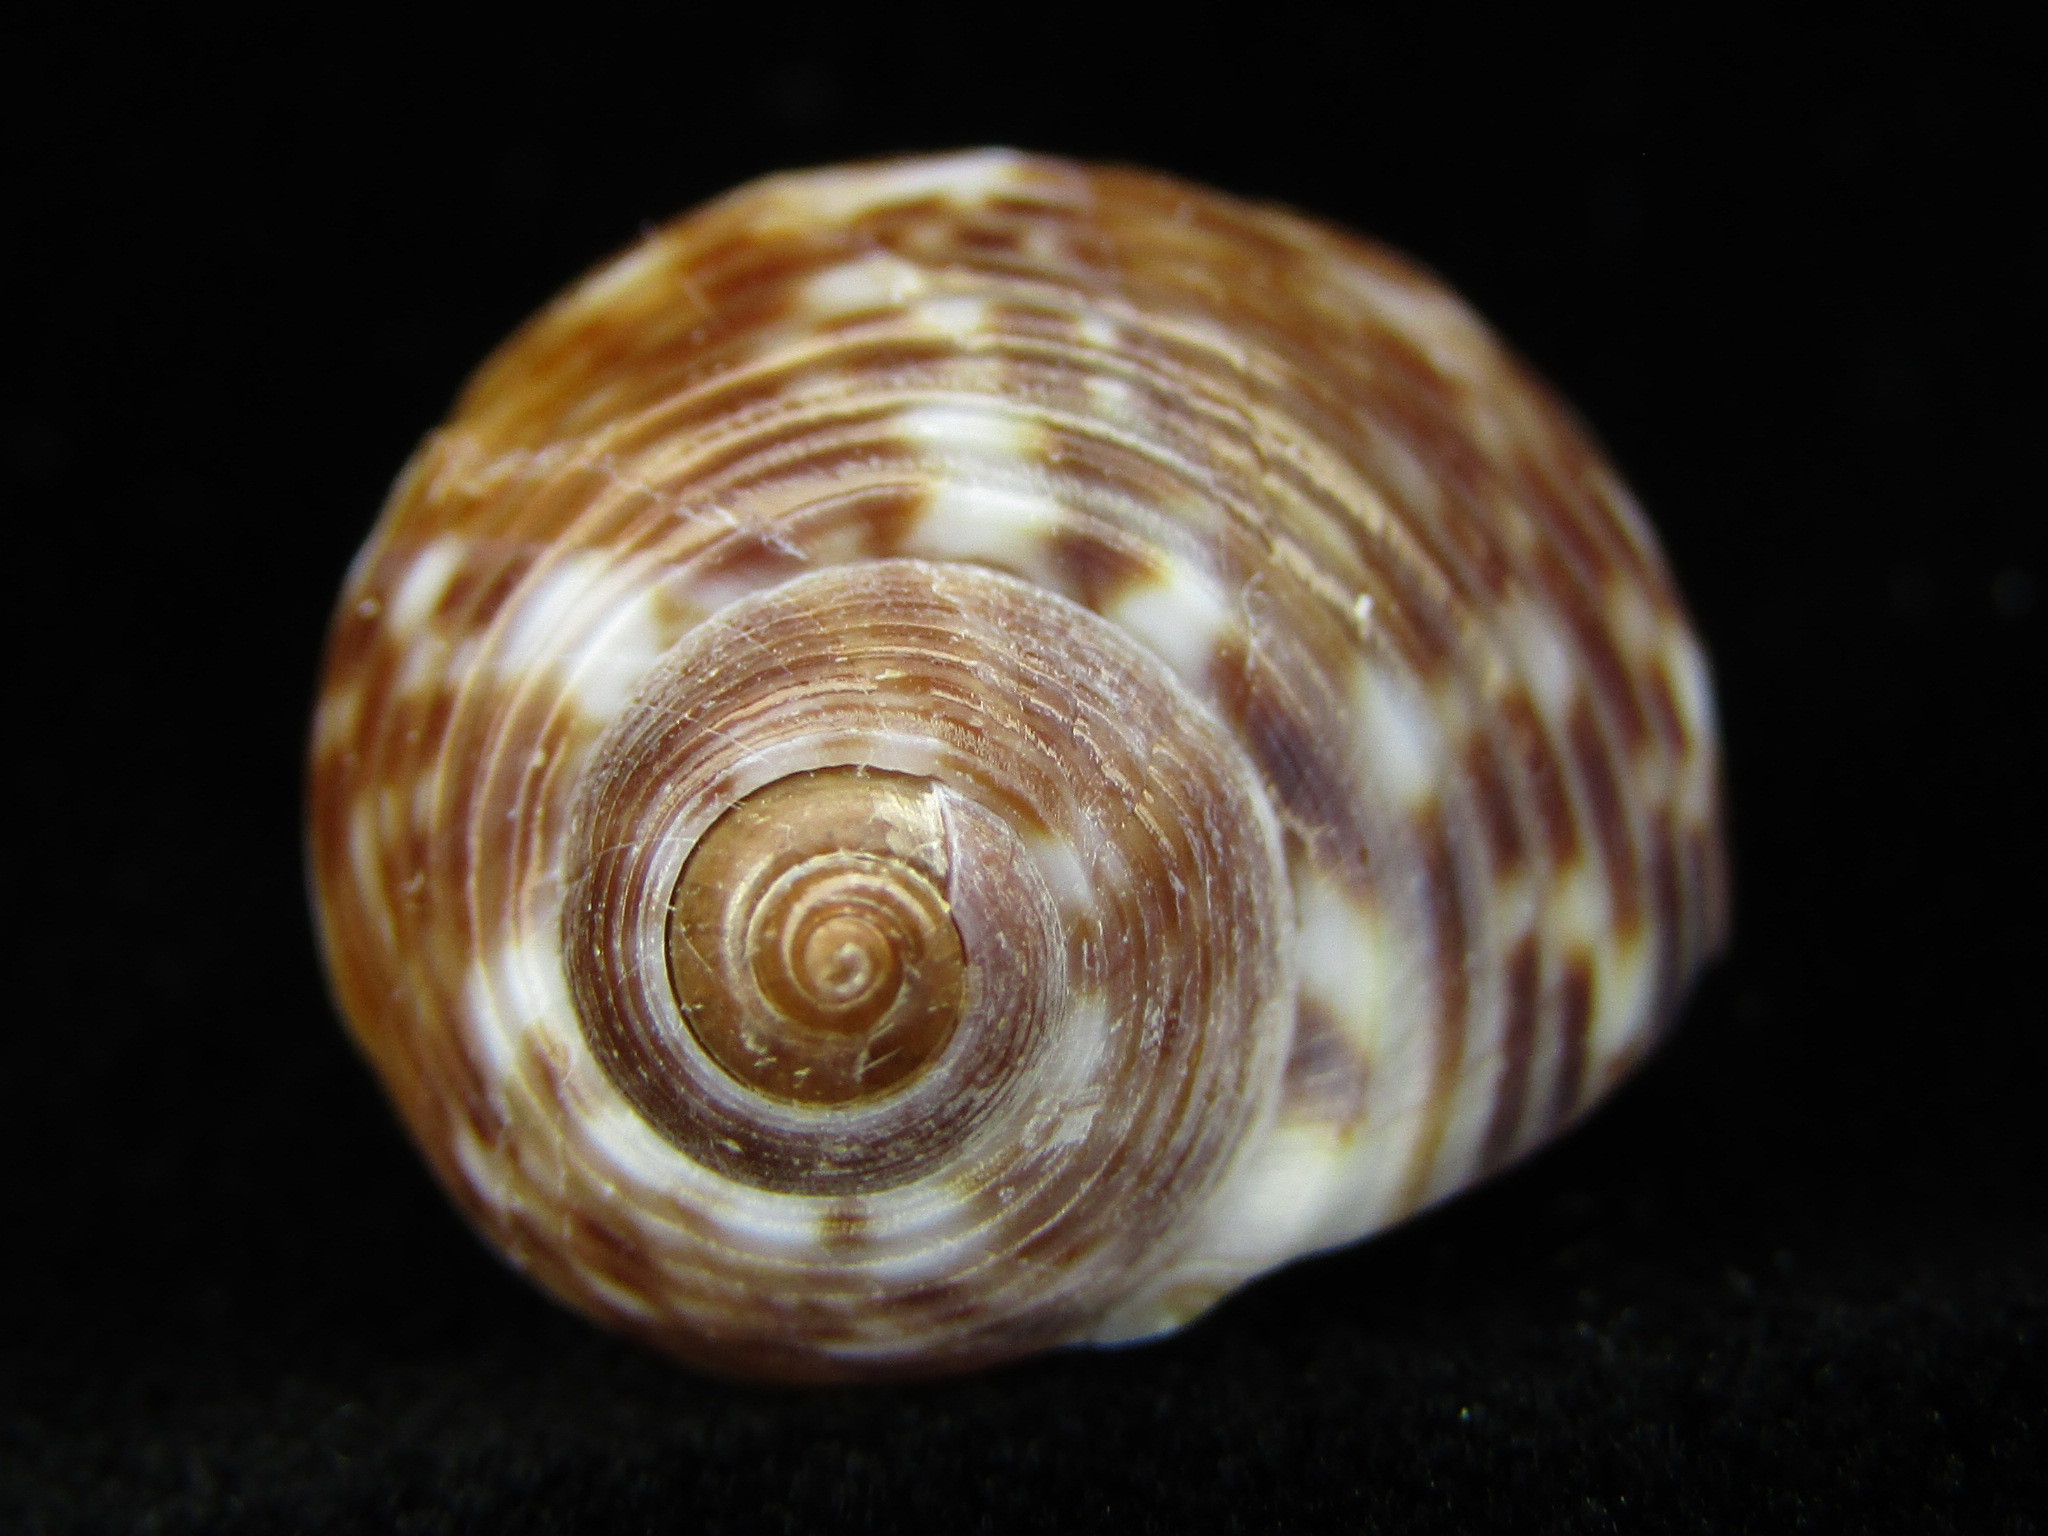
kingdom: Animalia
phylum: Mollusca
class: Gastropoda
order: Littorinimorpha
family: Tonnidae
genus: Tonna
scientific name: Tonna perdix
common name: Pacific partridge tun
